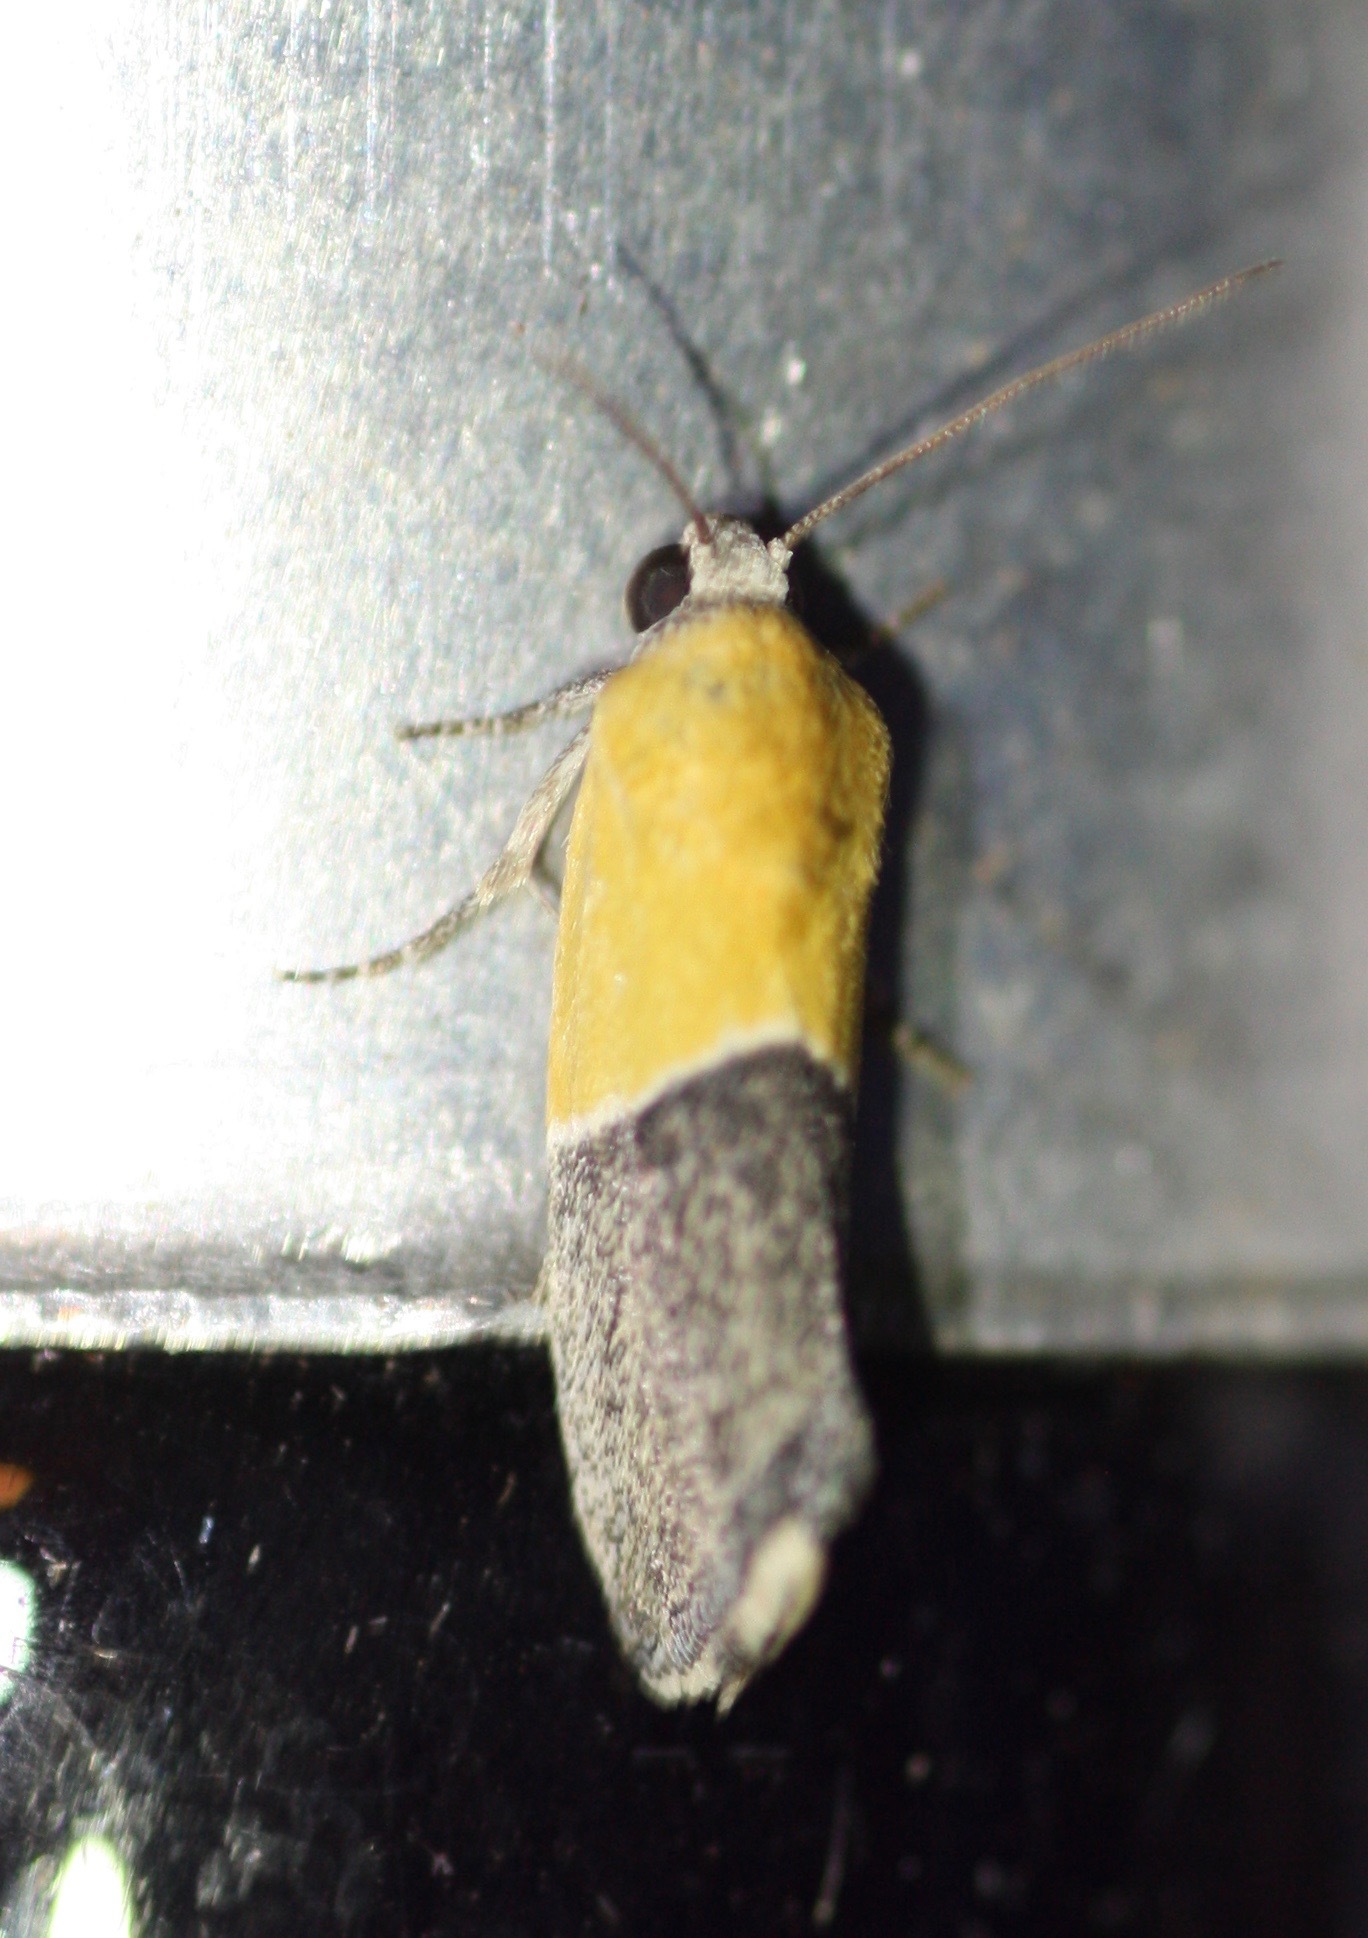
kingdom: Animalia
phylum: Arthropoda
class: Insecta
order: Lepidoptera
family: Noctuidae
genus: Acontia
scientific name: Acontia clausula
